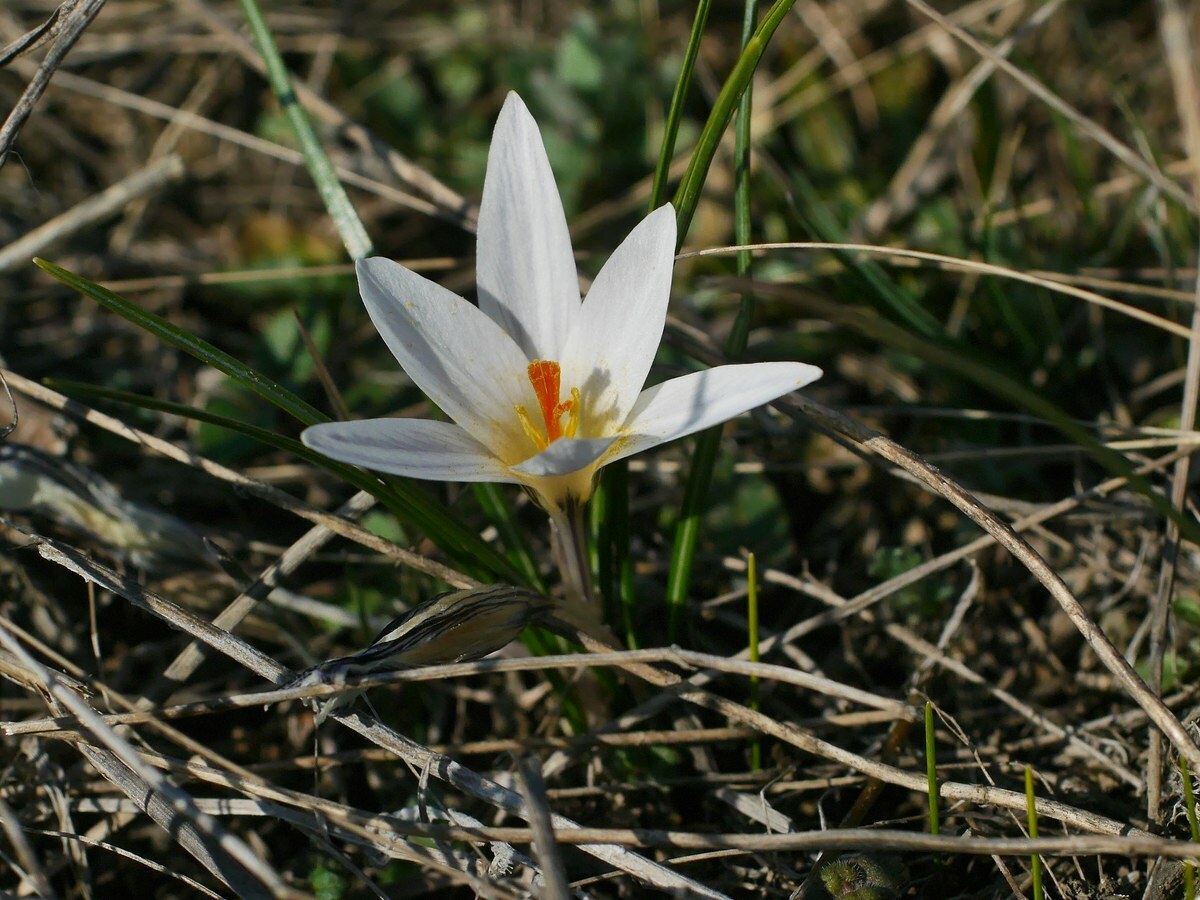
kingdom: Plantae
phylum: Tracheophyta
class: Liliopsida
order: Asparagales
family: Iridaceae
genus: Crocus
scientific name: Crocus reticulatus
